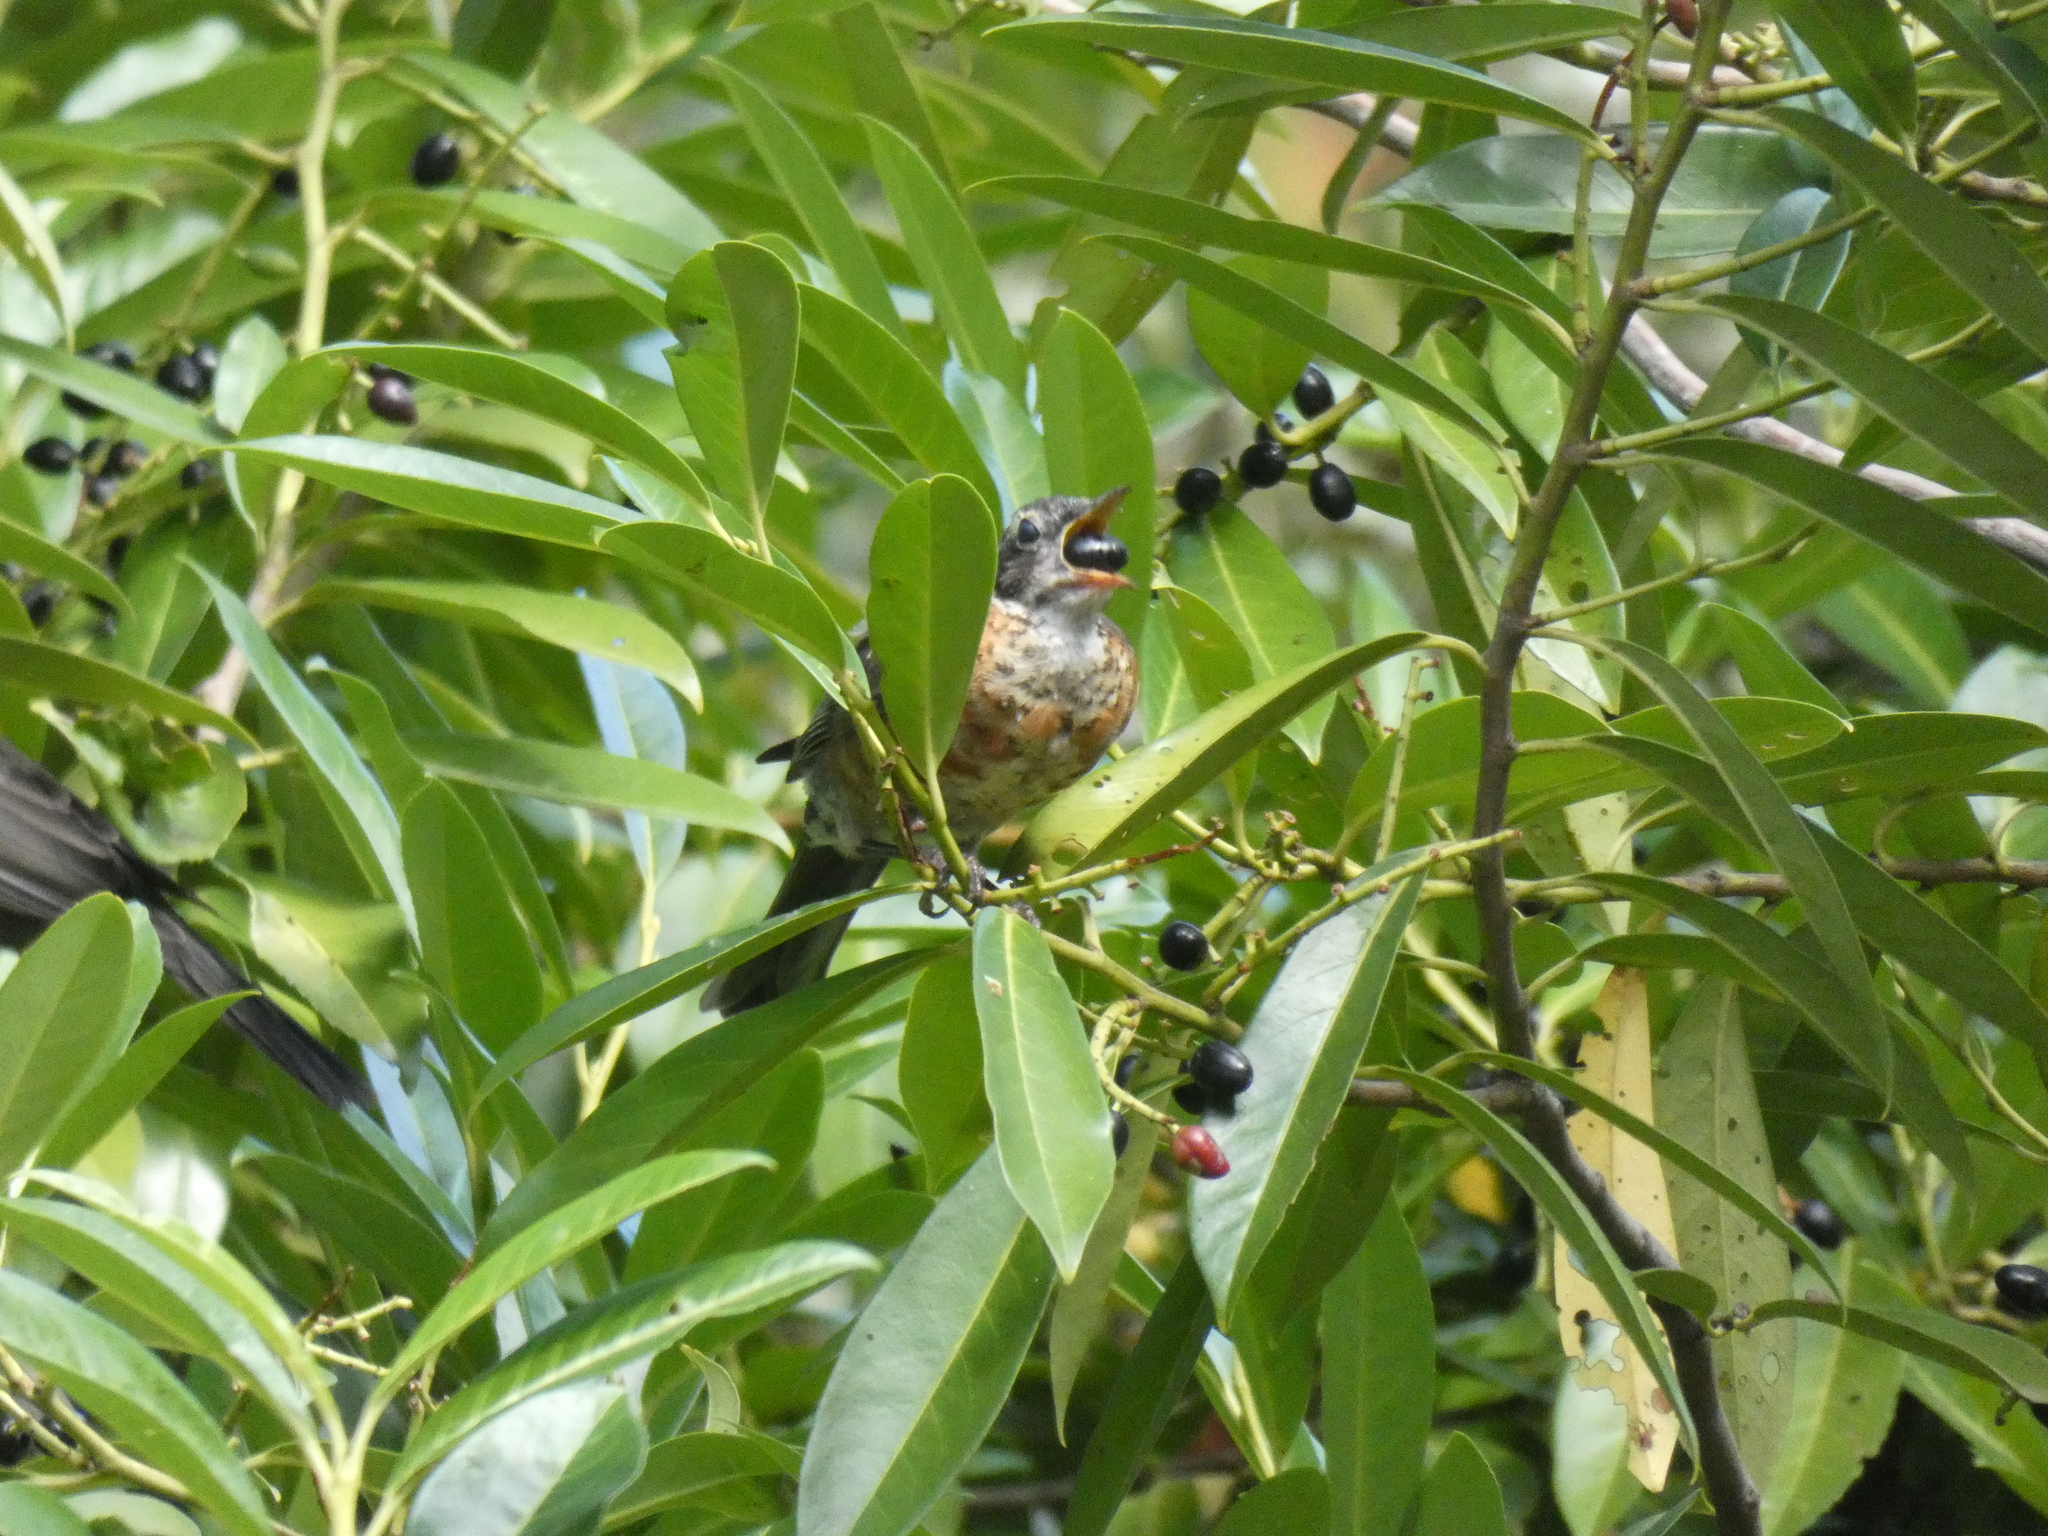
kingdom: Animalia
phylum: Chordata
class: Aves
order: Passeriformes
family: Turdidae
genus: Turdus
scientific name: Turdus migratorius
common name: American robin
